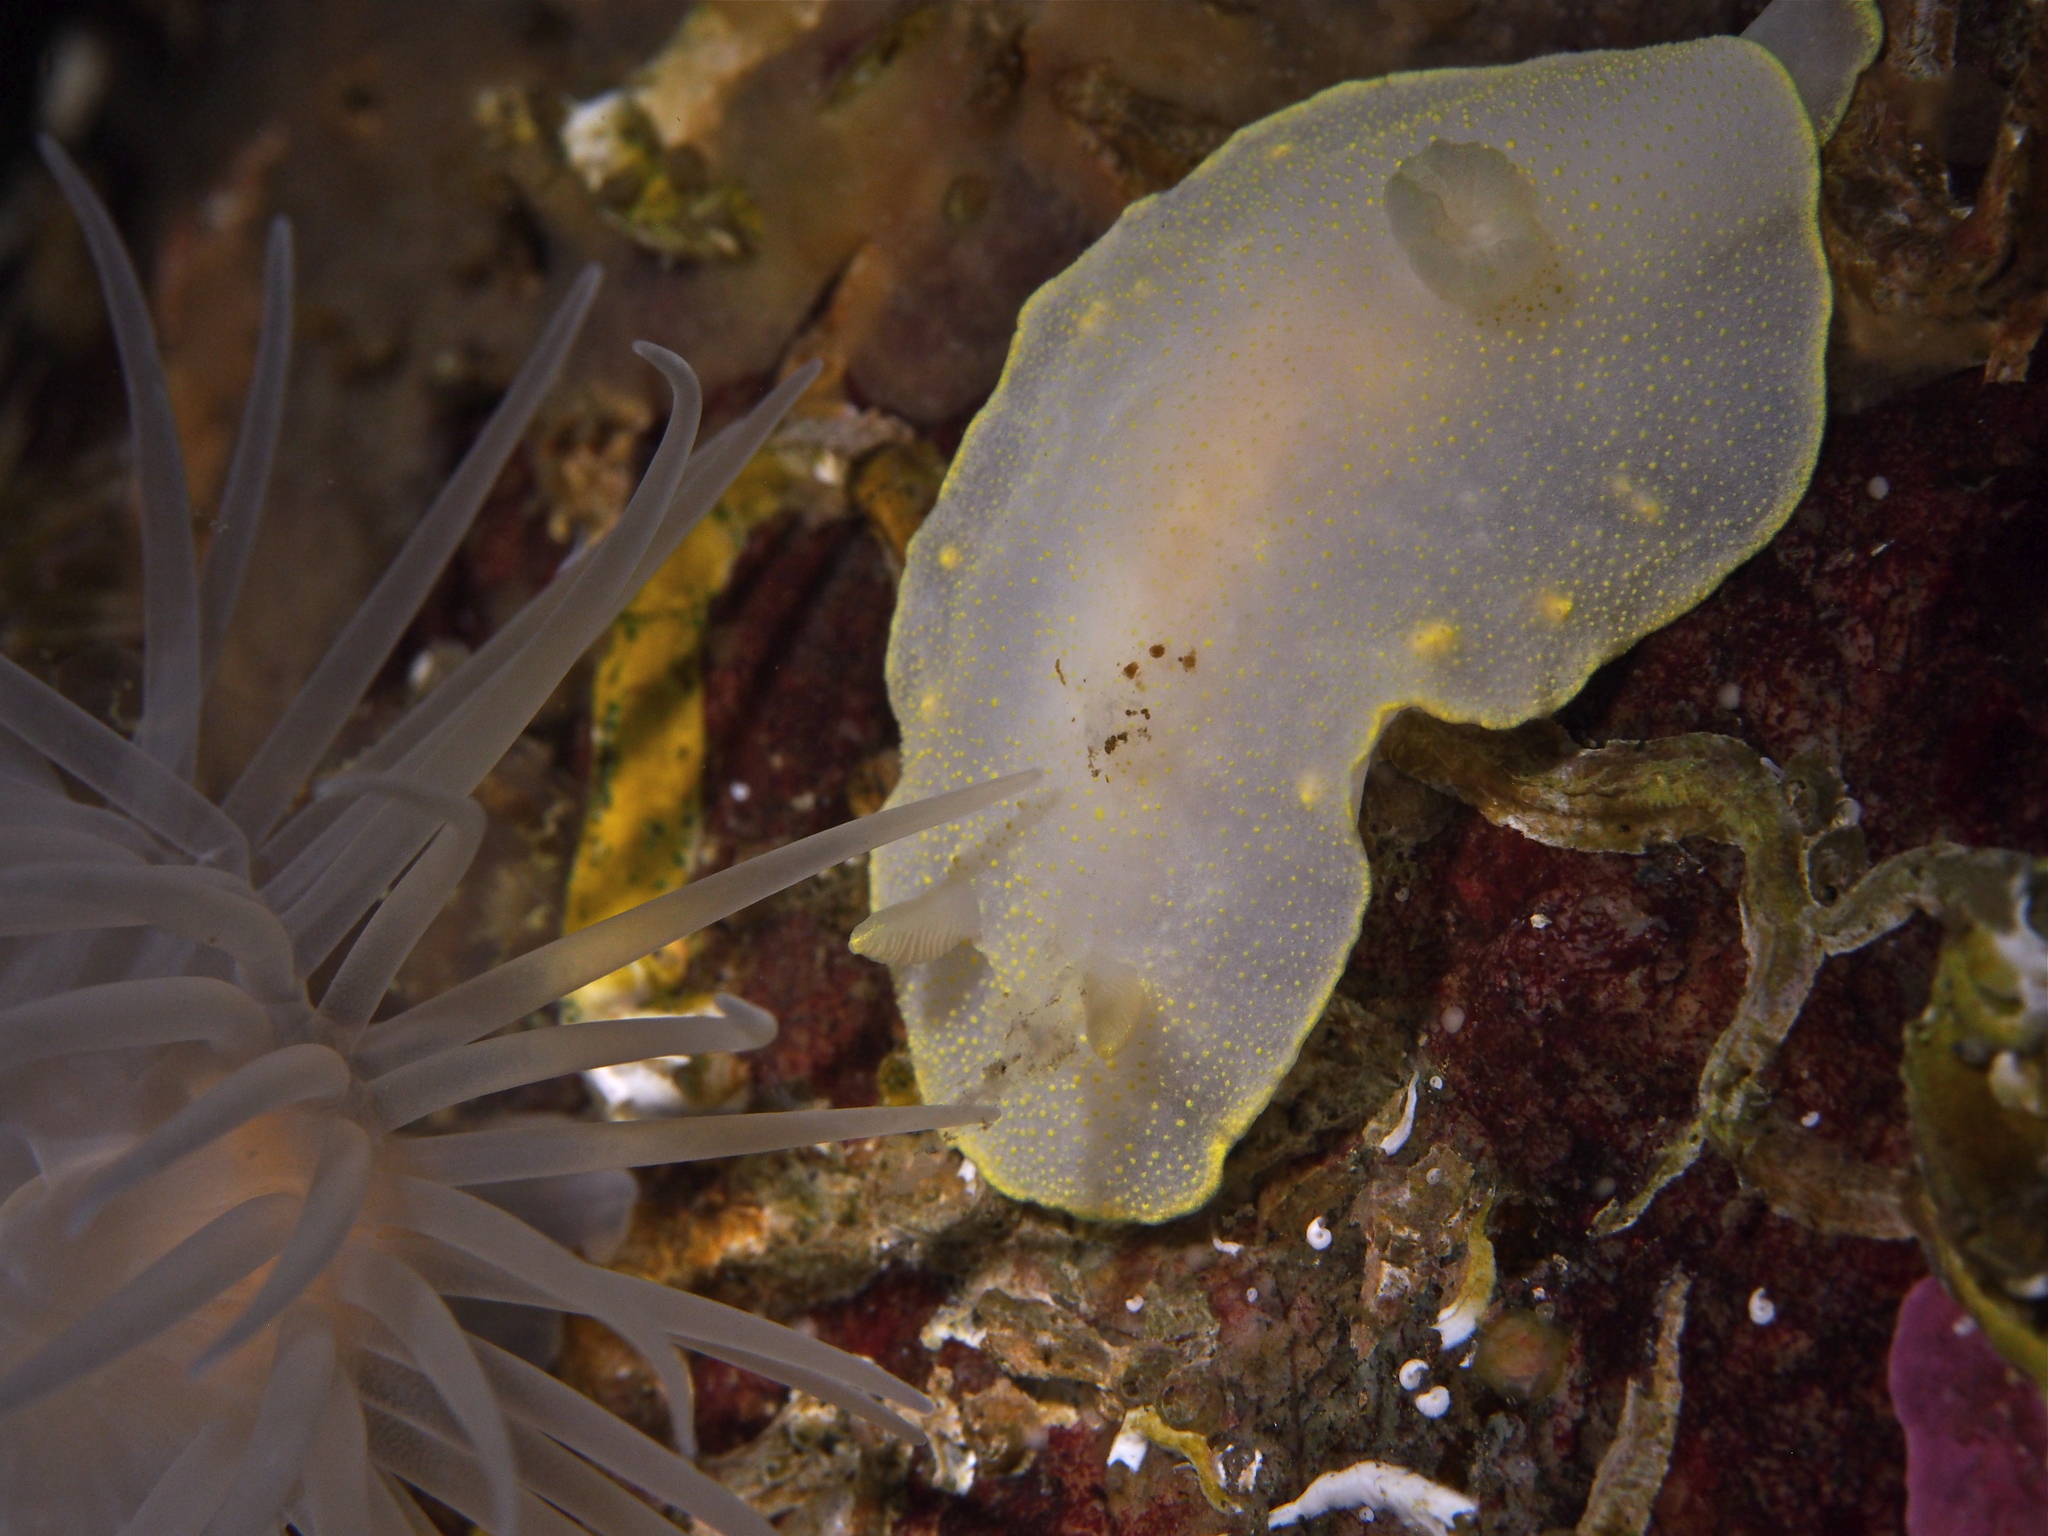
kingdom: Animalia
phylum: Mollusca
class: Gastropoda
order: Nudibranchia
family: Cadlinidae
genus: Cadlina
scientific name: Cadlina laevis
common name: White atlantic cadlina
